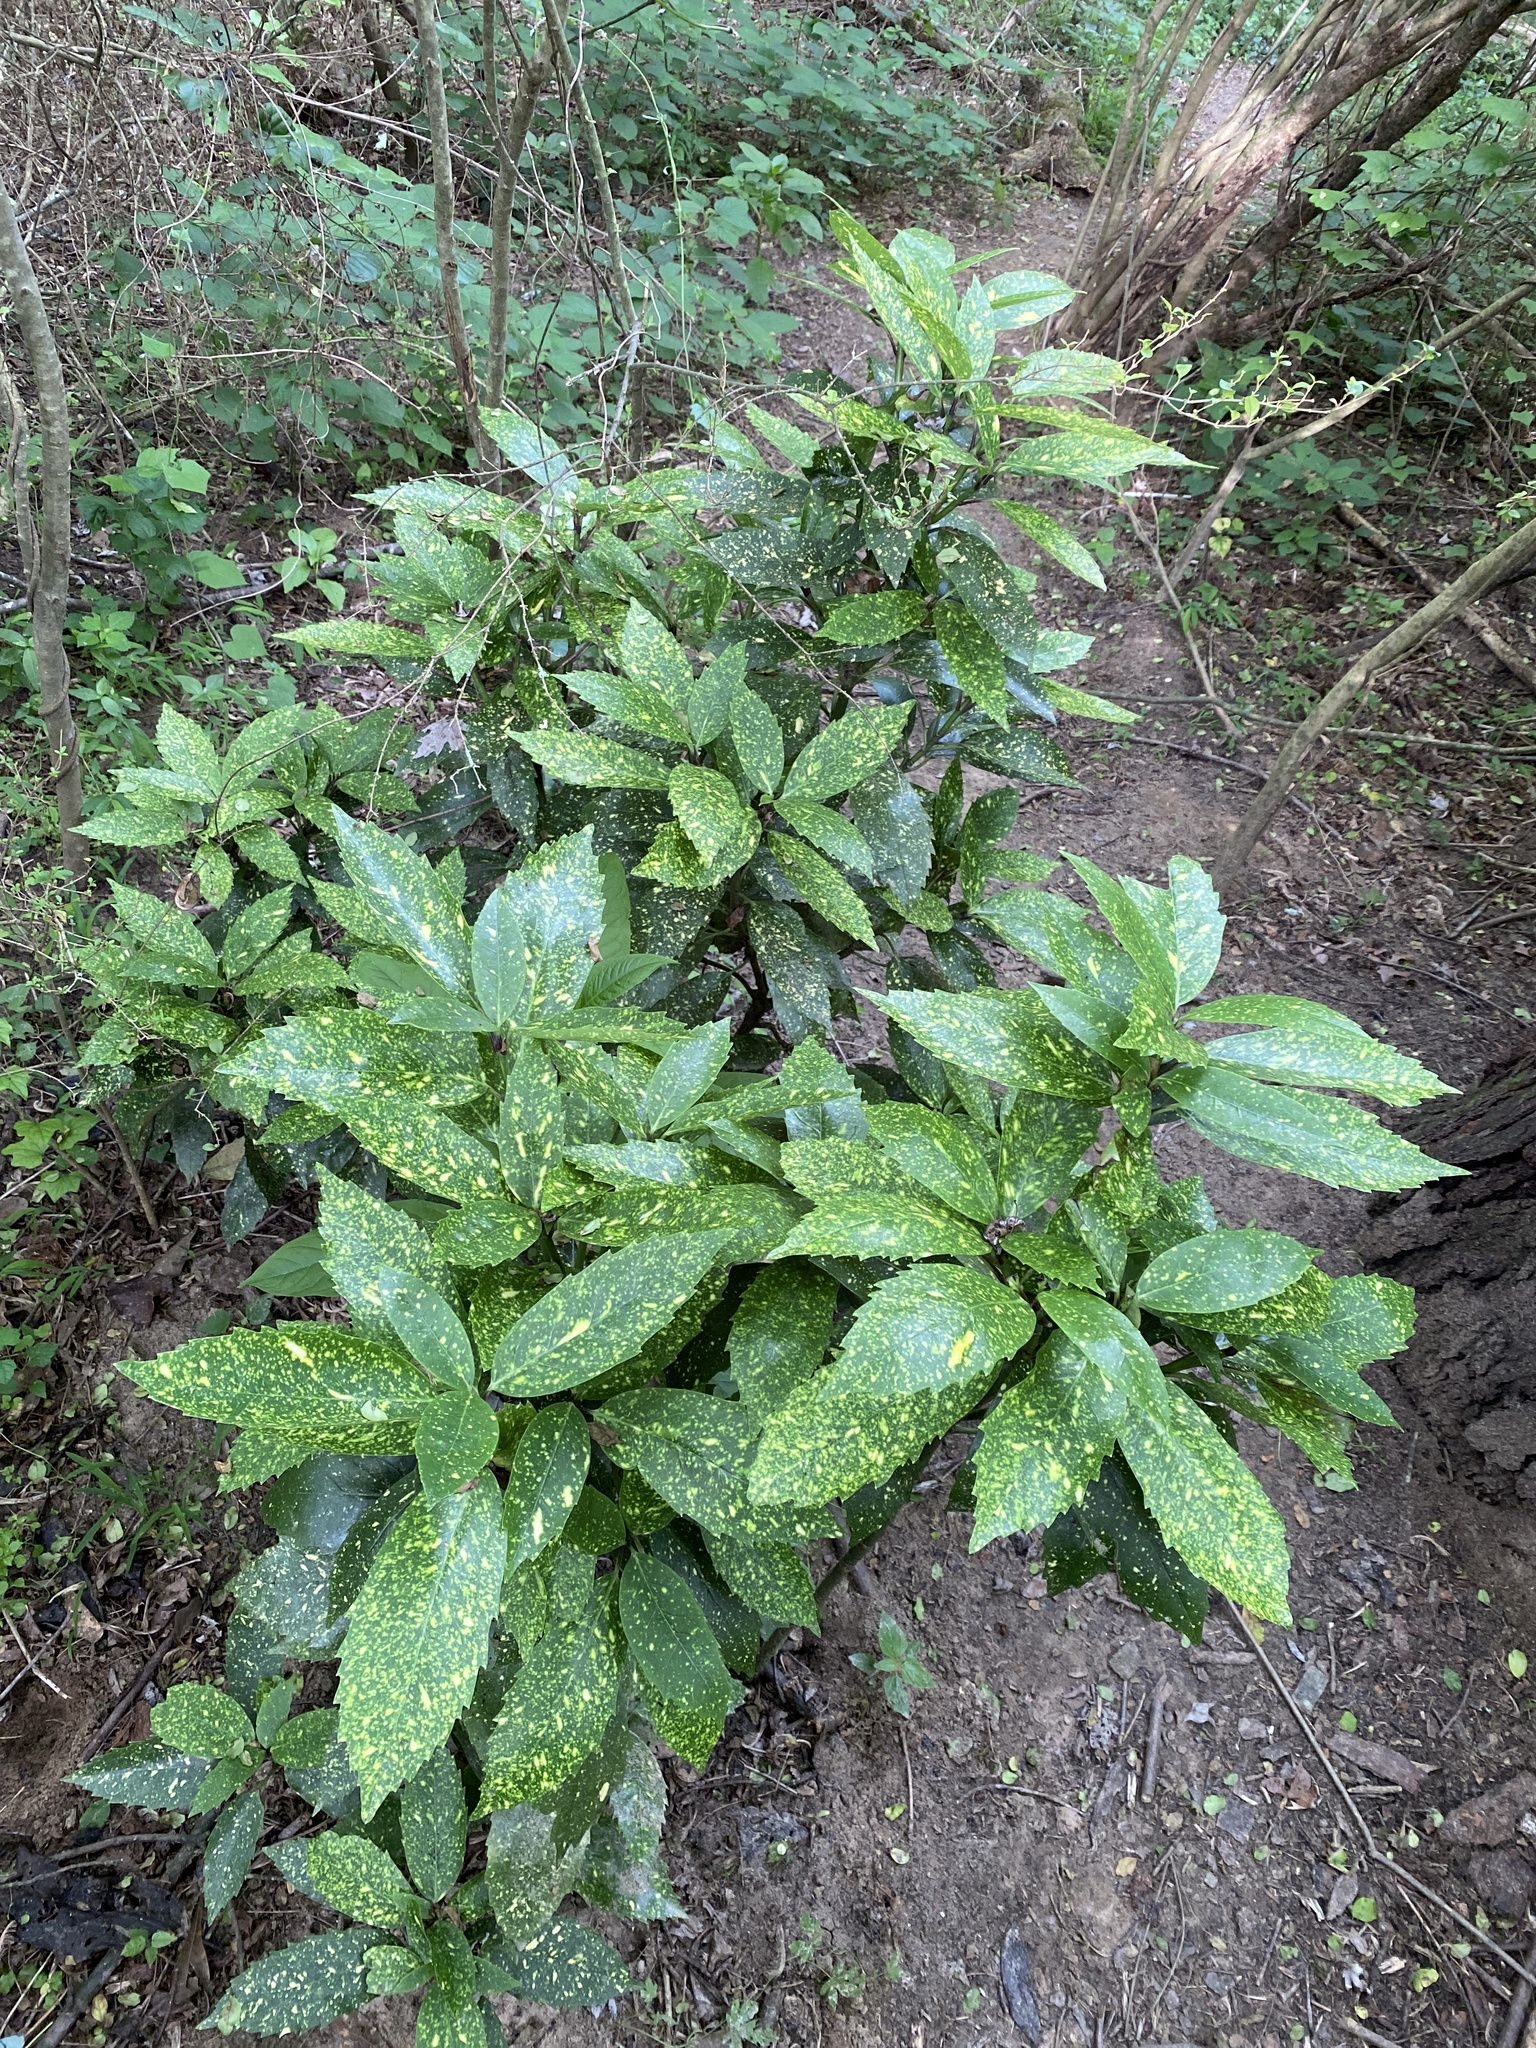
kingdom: Plantae
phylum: Tracheophyta
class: Magnoliopsida
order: Garryales
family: Garryaceae
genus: Aucuba
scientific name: Aucuba japonica
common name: Spotted-laurel
